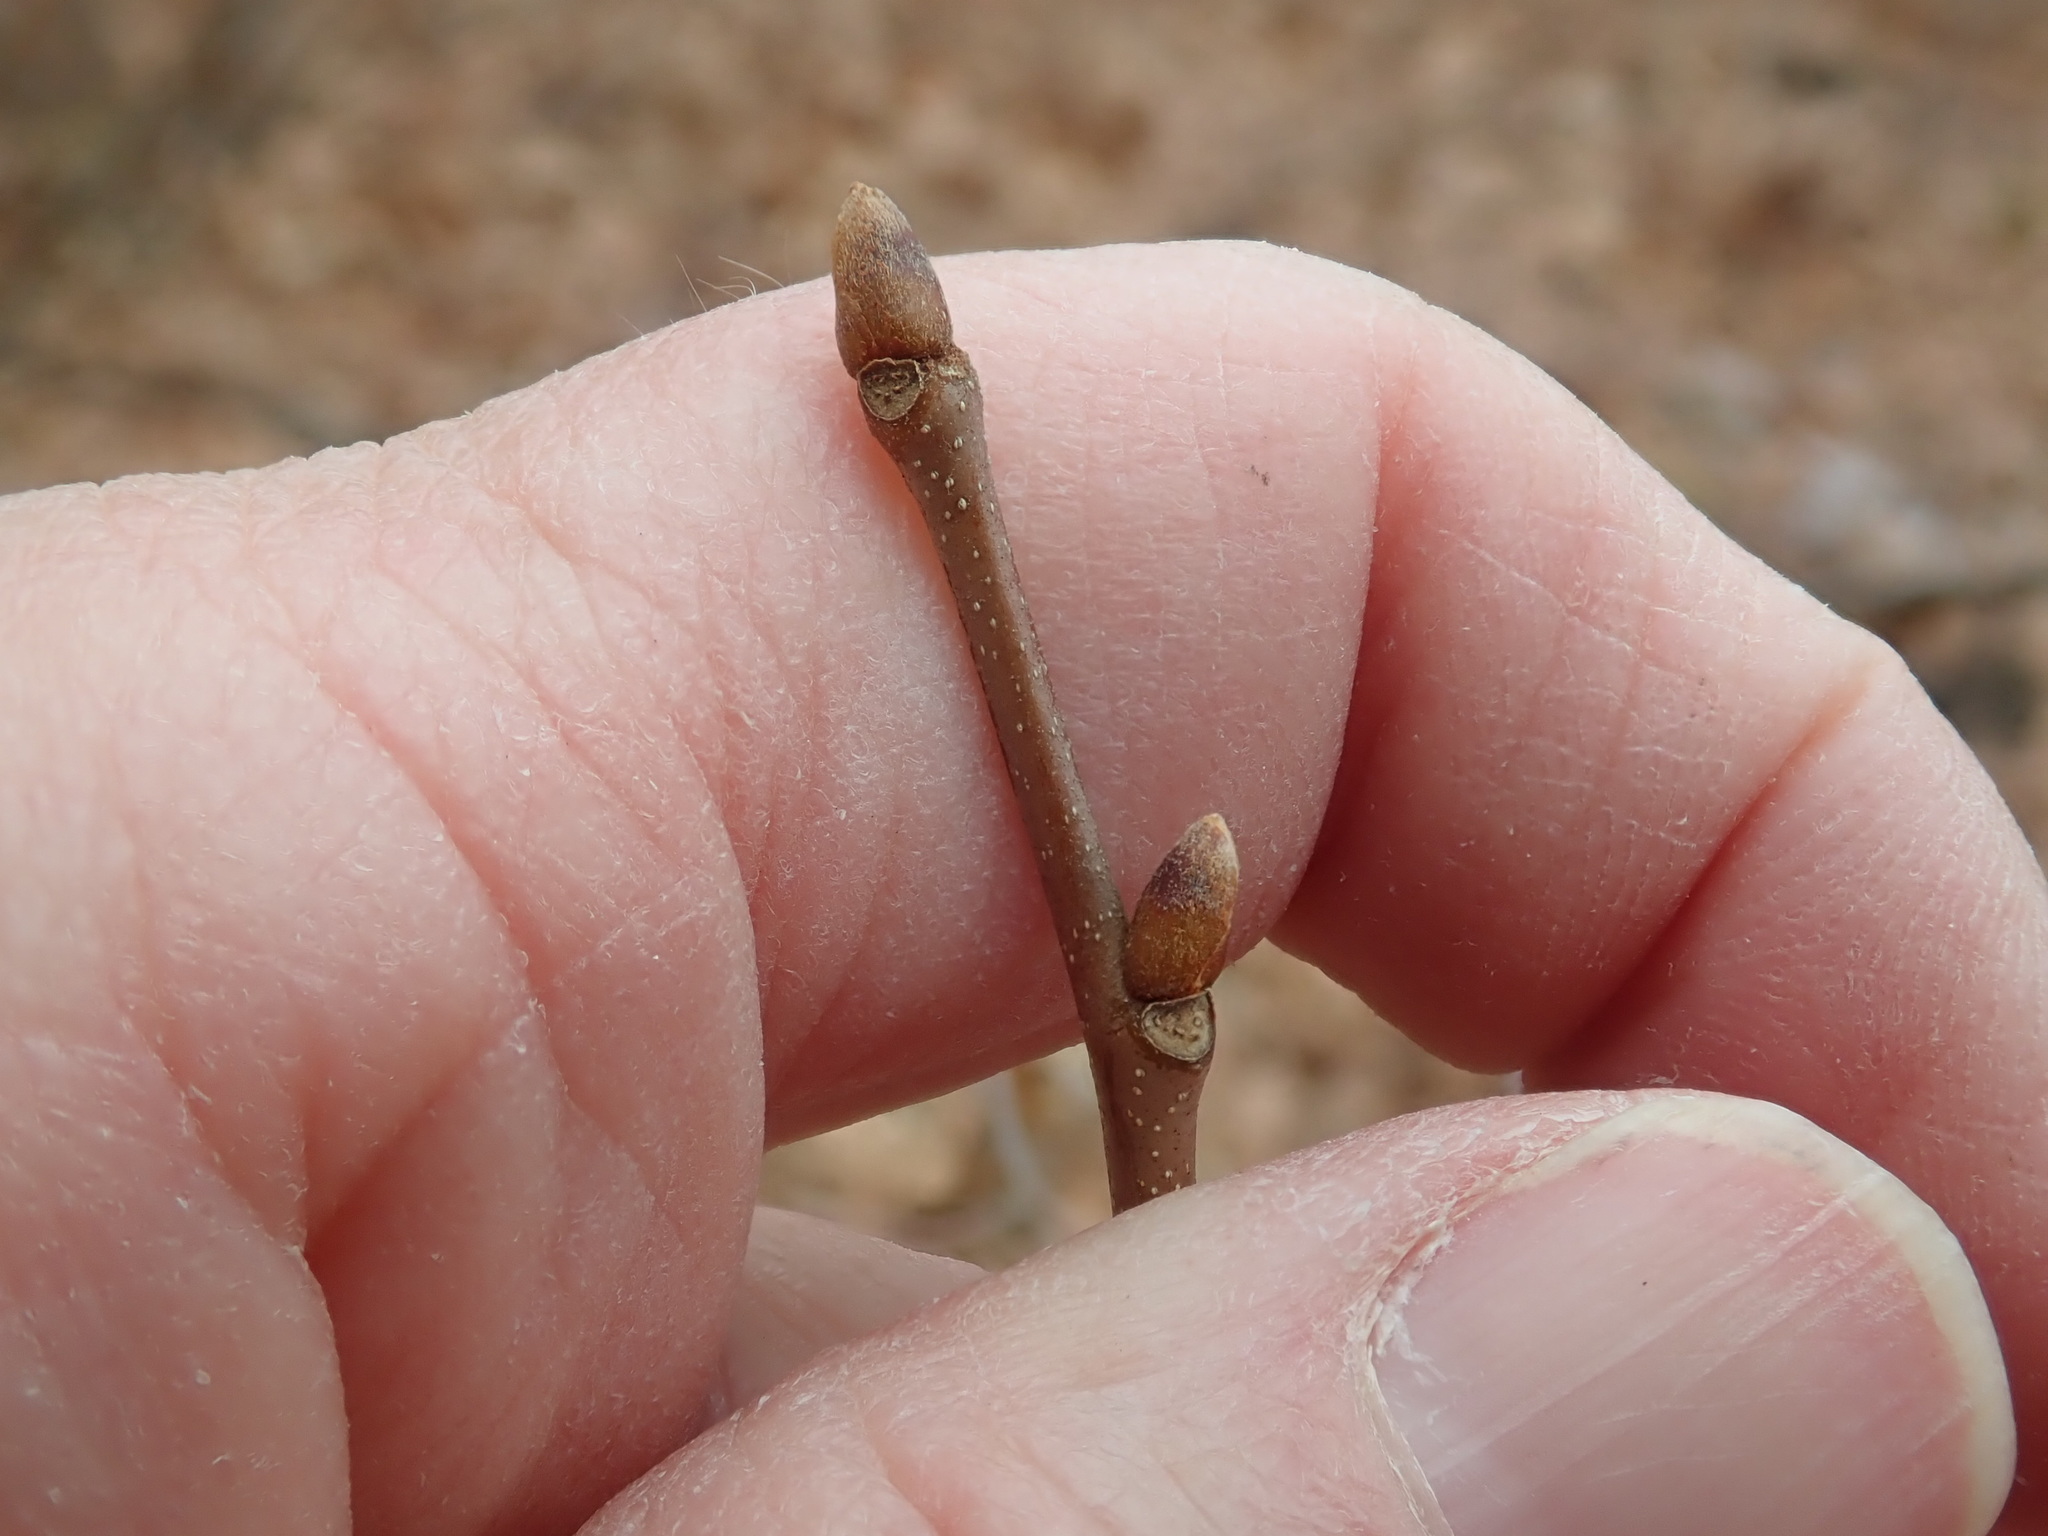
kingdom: Plantae
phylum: Tracheophyta
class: Magnoliopsida
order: Fagales
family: Fagaceae
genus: Castanea
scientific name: Castanea dentata
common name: American chestnut
